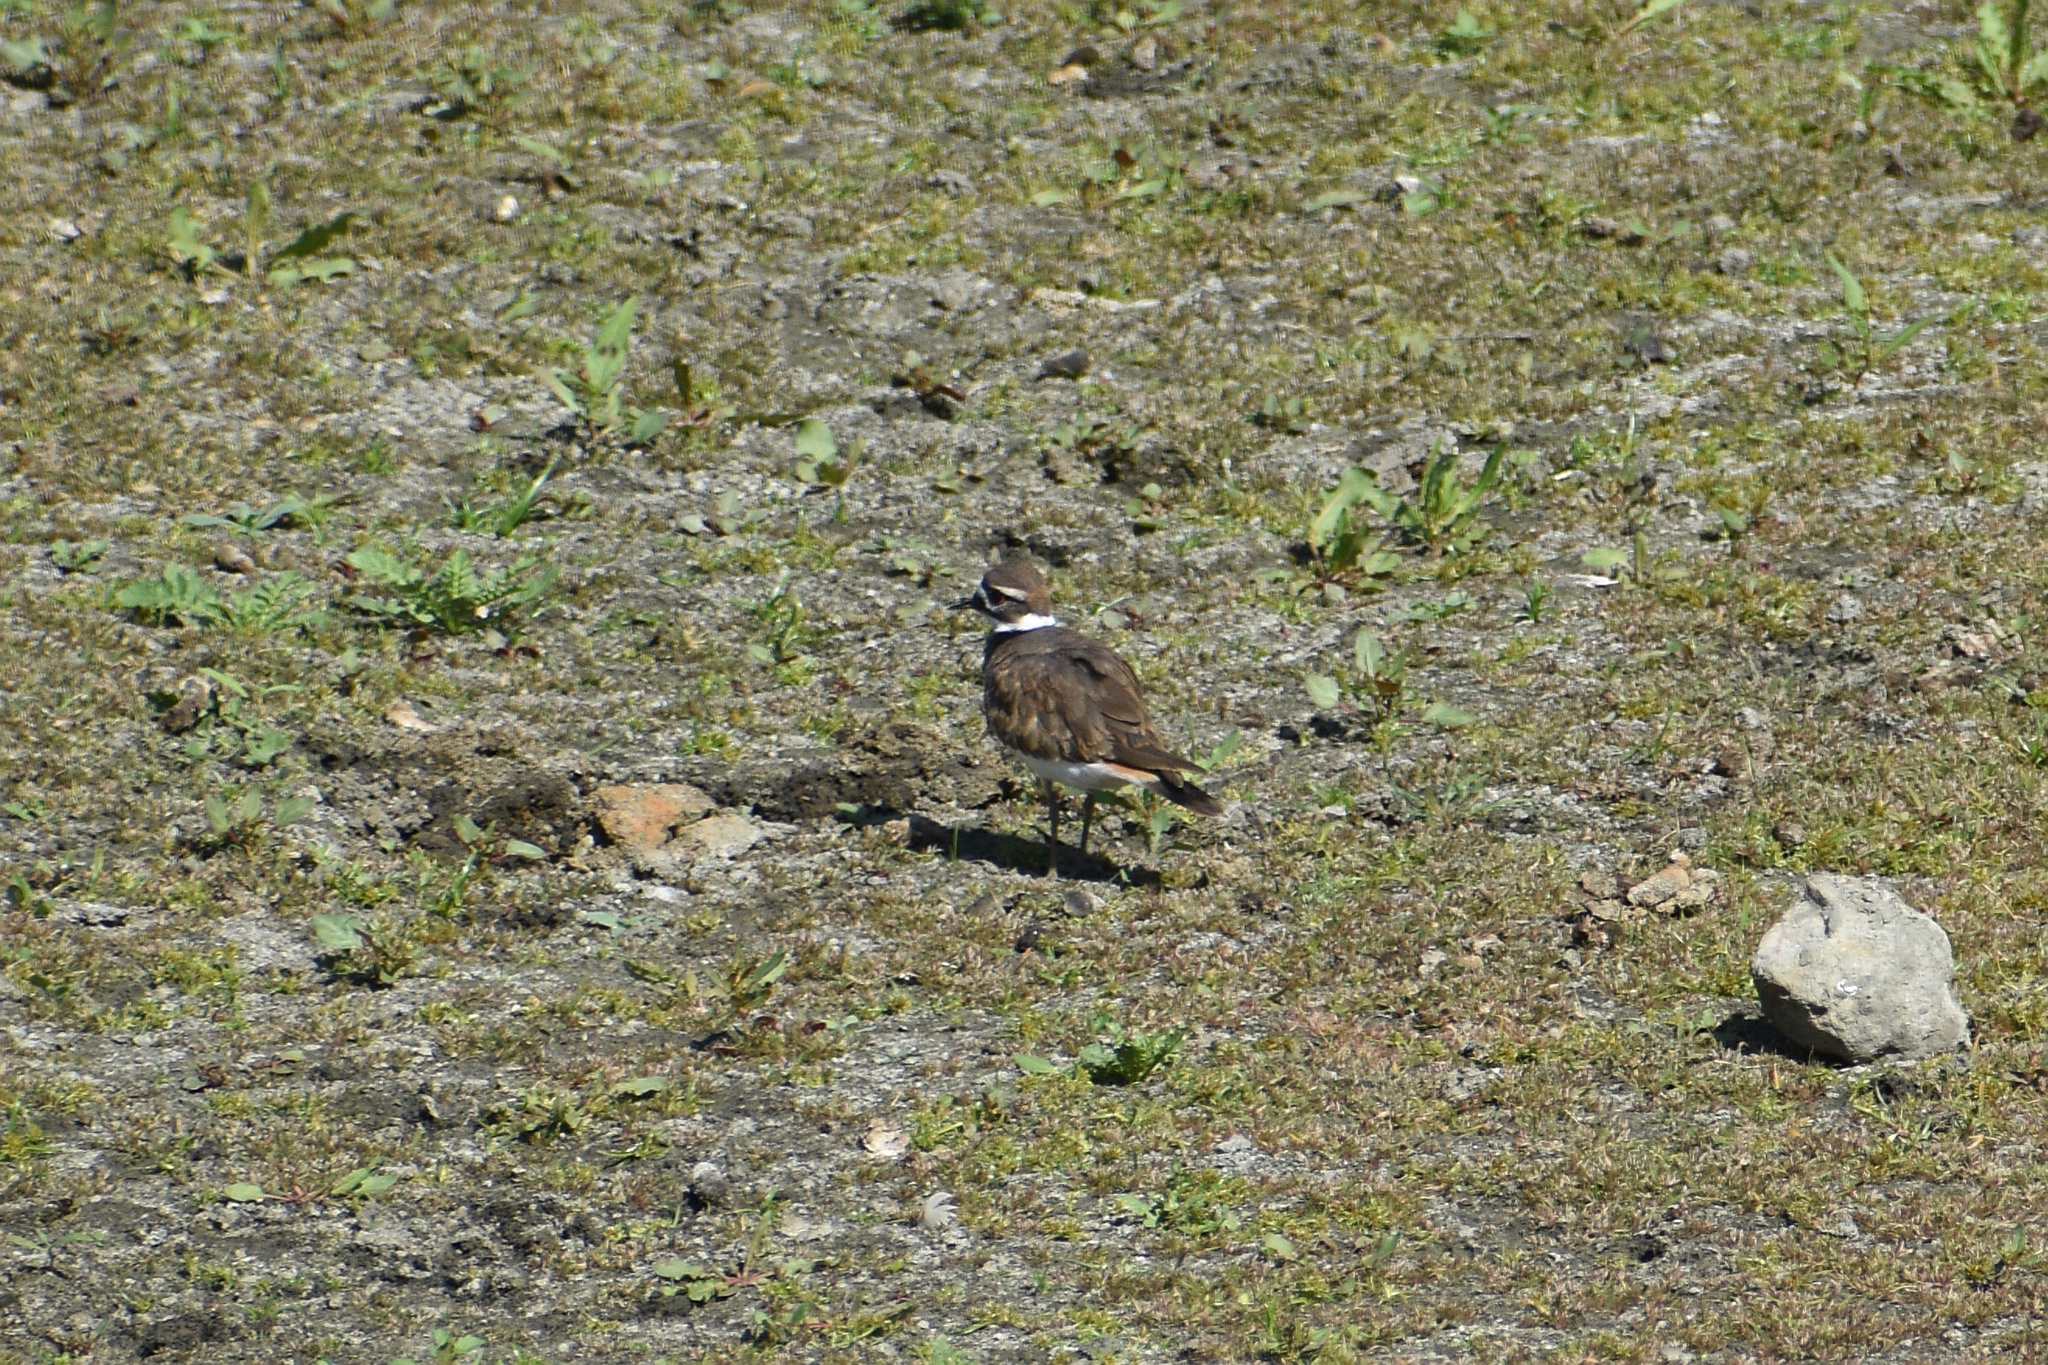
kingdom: Animalia
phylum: Chordata
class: Aves
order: Charadriiformes
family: Charadriidae
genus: Charadrius
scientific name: Charadrius vociferus
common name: Killdeer
